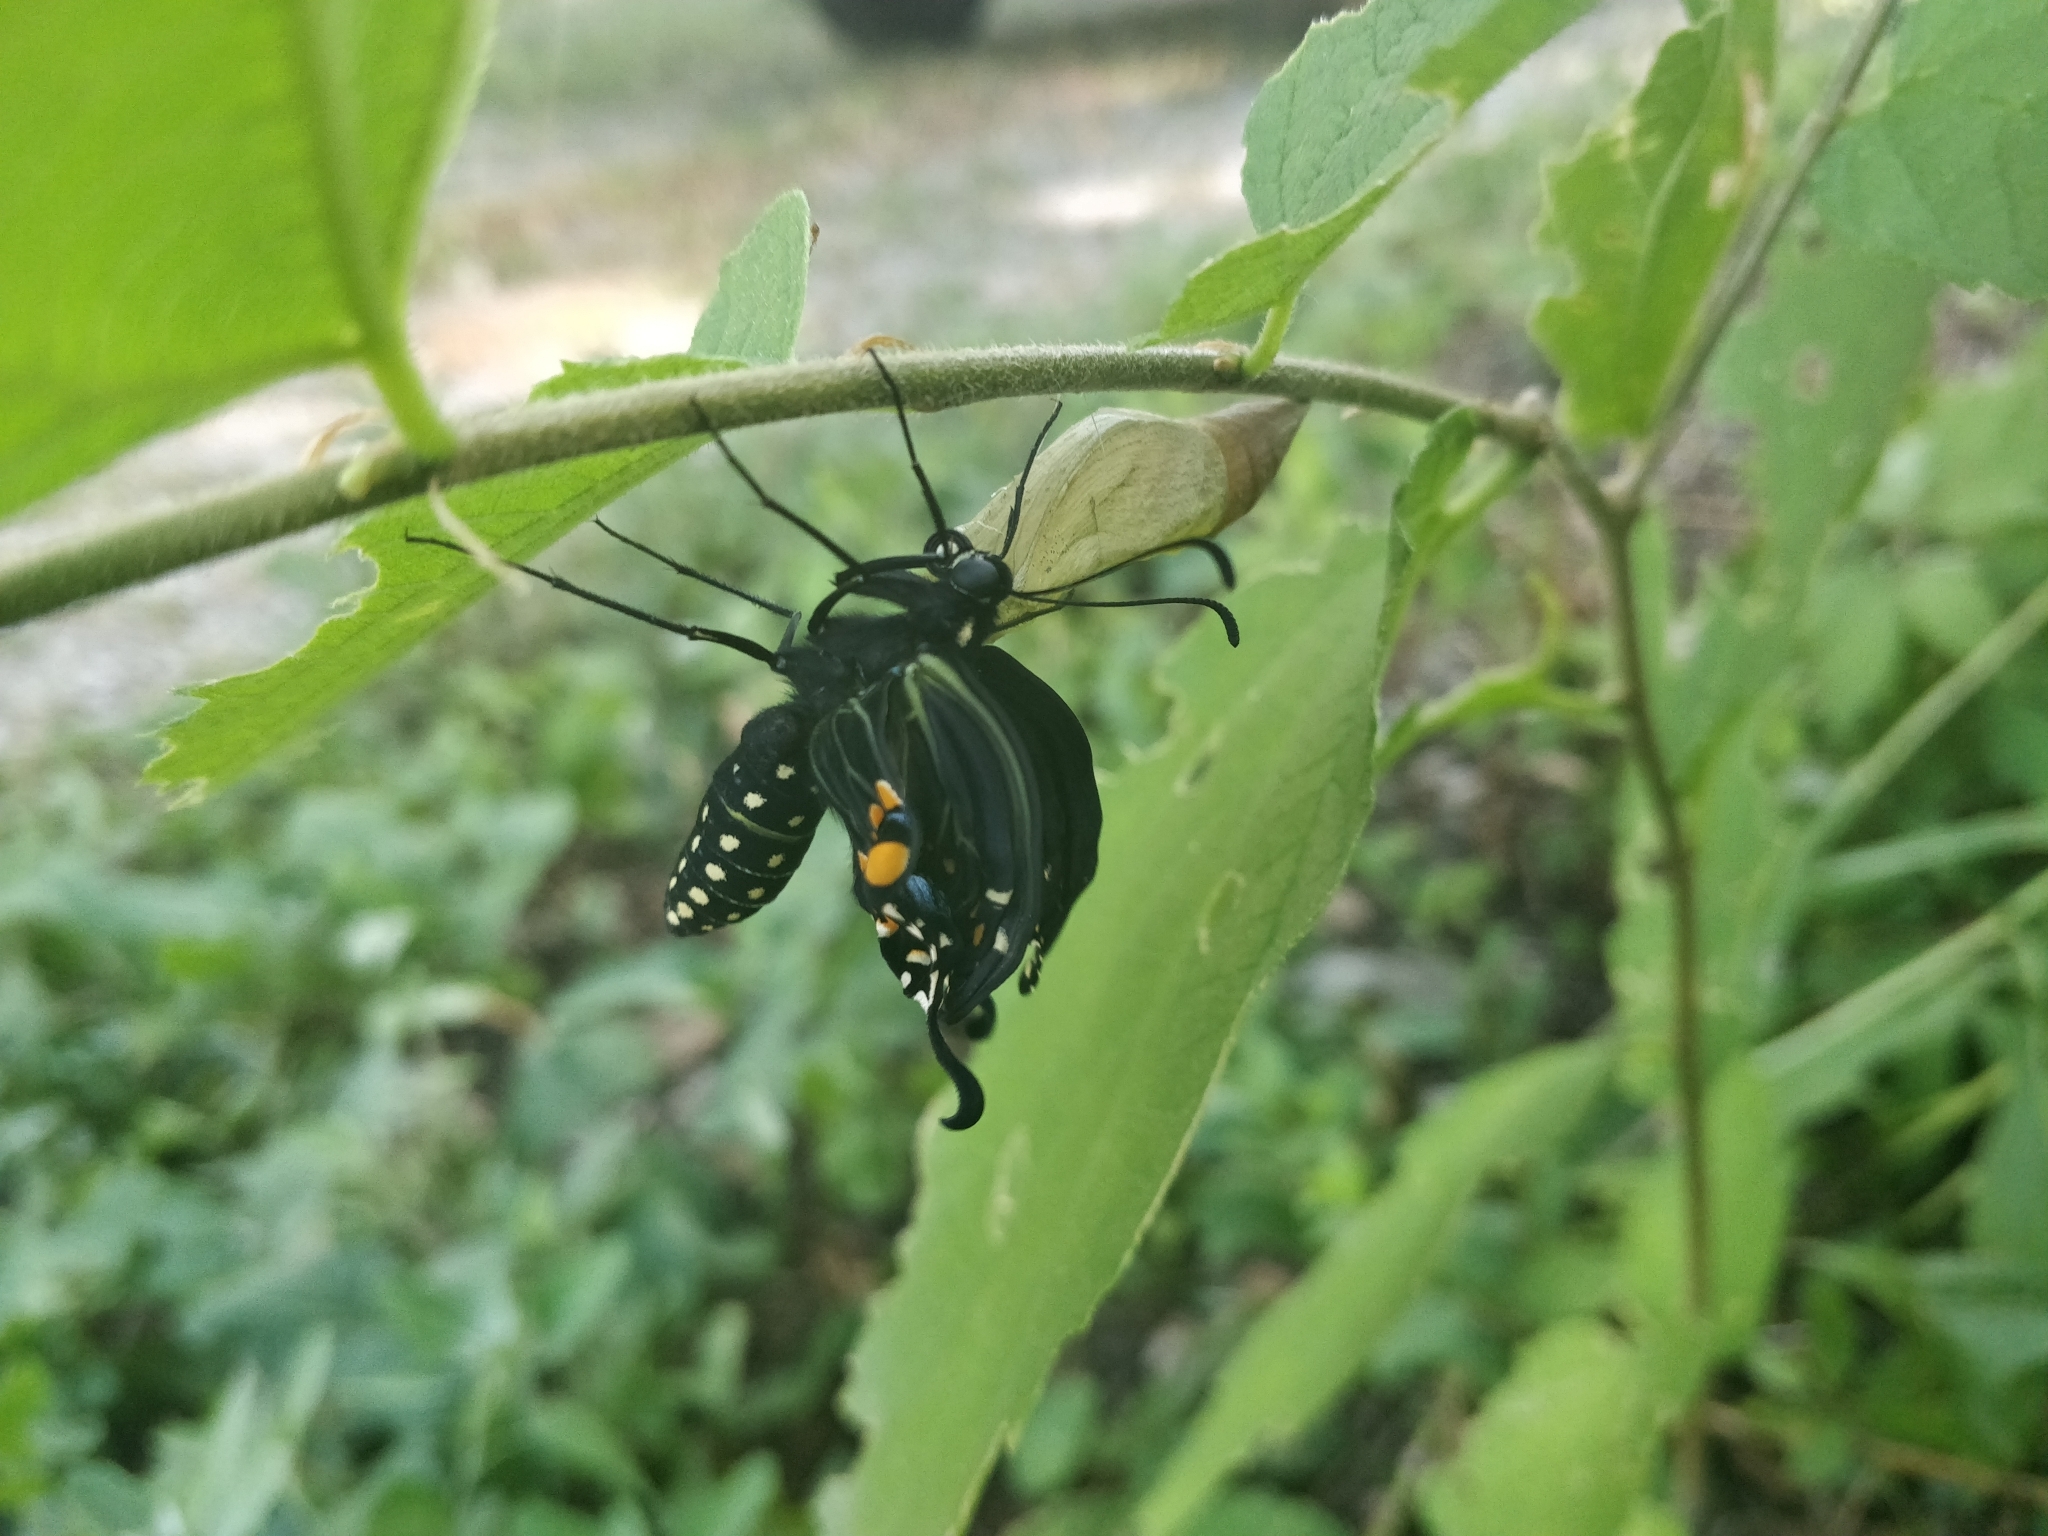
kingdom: Animalia
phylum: Arthropoda
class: Insecta
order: Lepidoptera
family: Papilionidae
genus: Papilio
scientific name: Papilio polyxenes
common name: Black swallowtail
